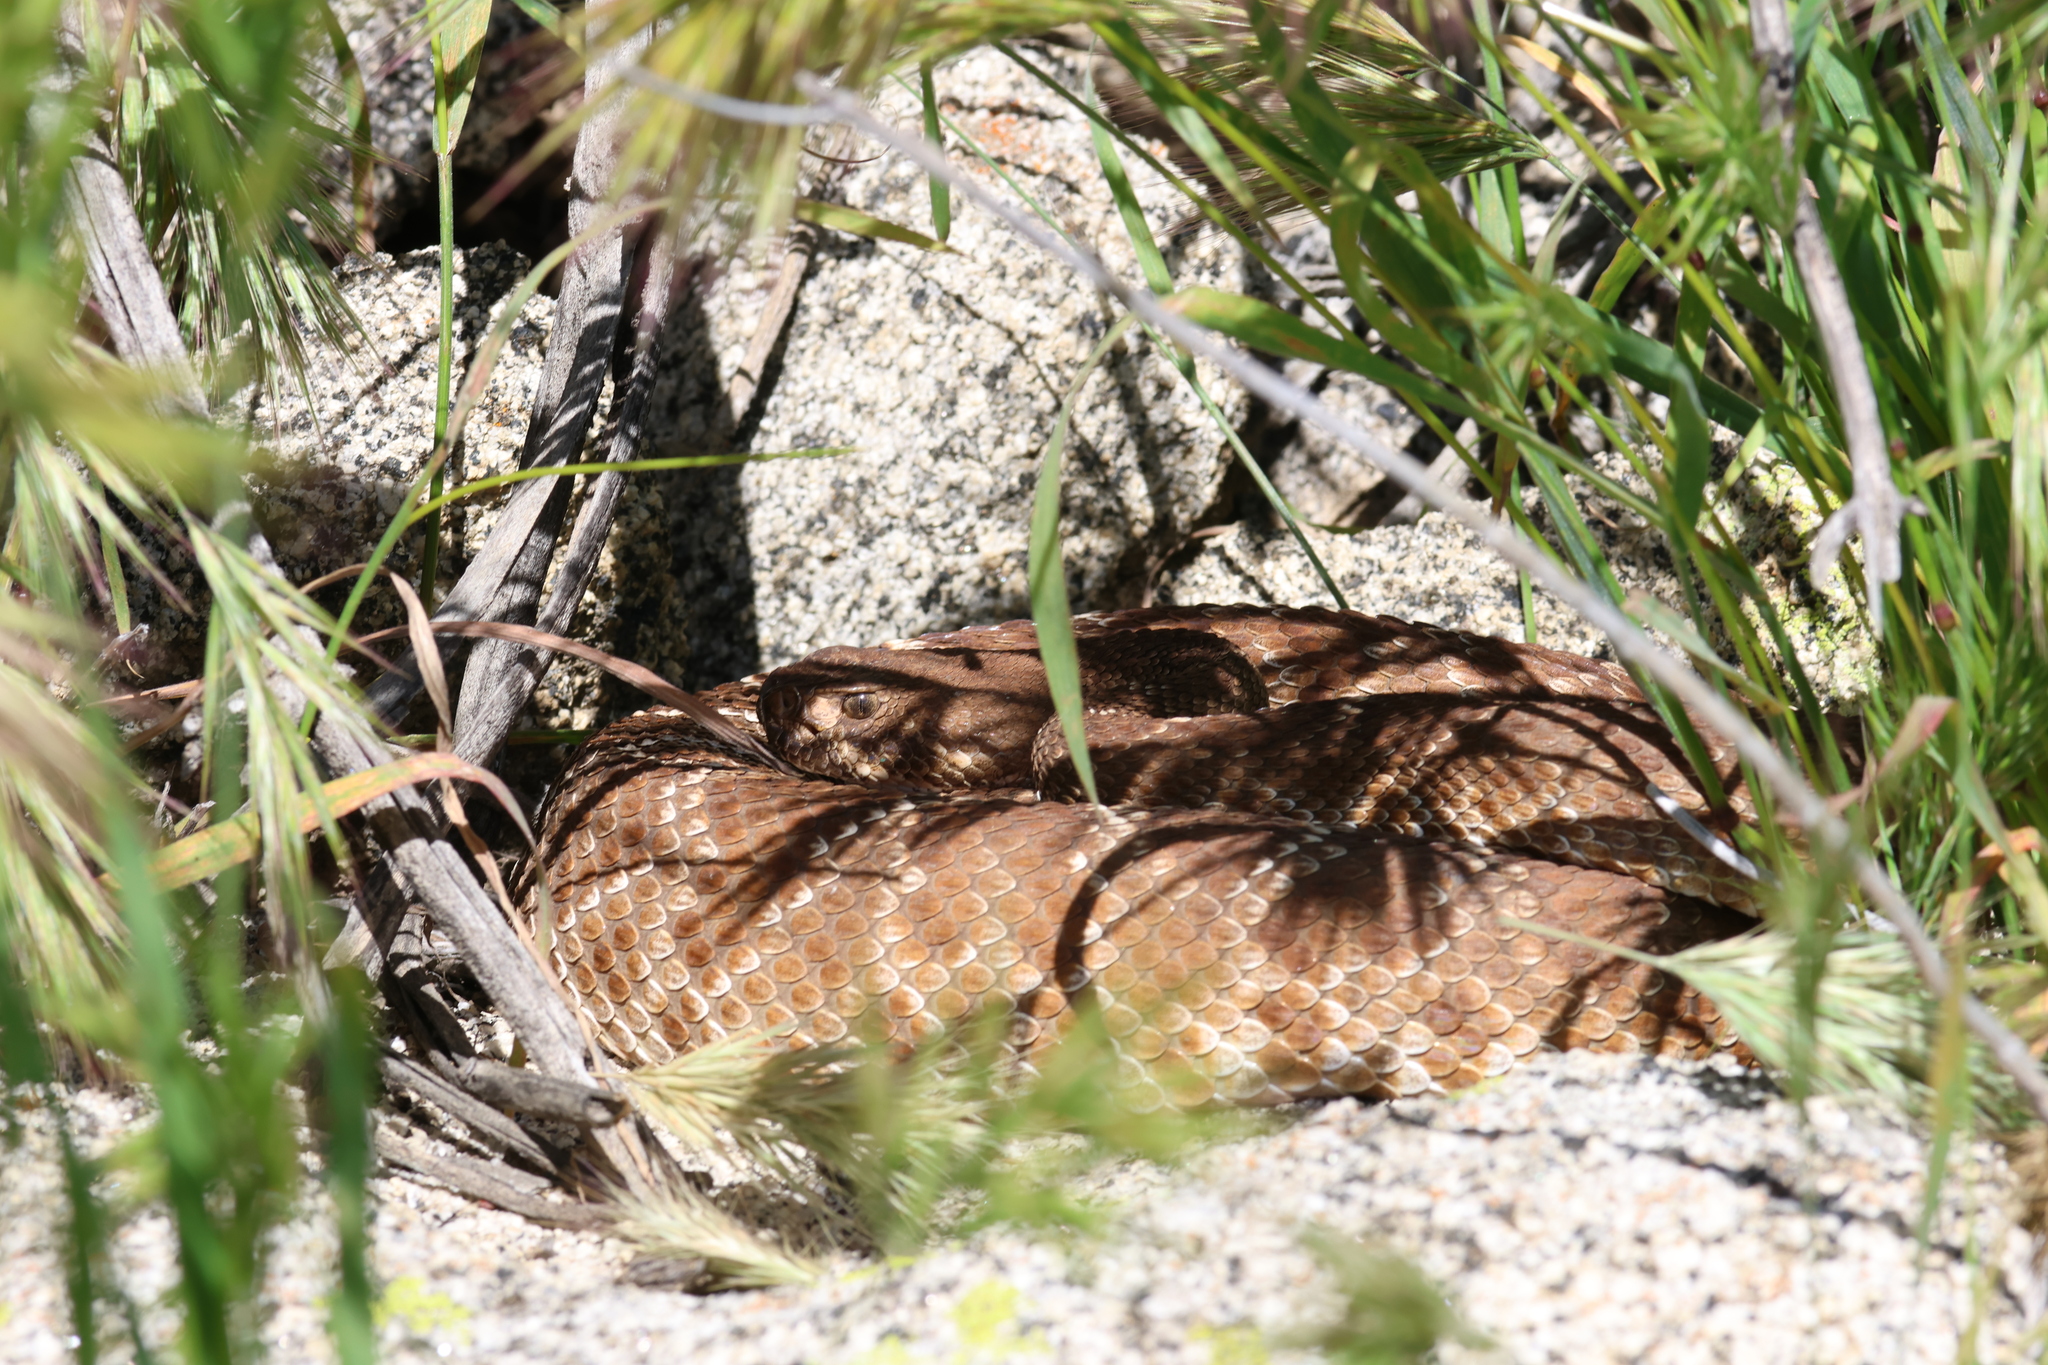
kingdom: Animalia
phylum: Chordata
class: Squamata
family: Viperidae
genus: Crotalus
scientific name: Crotalus ruber
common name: Red diamond rattlesnake
